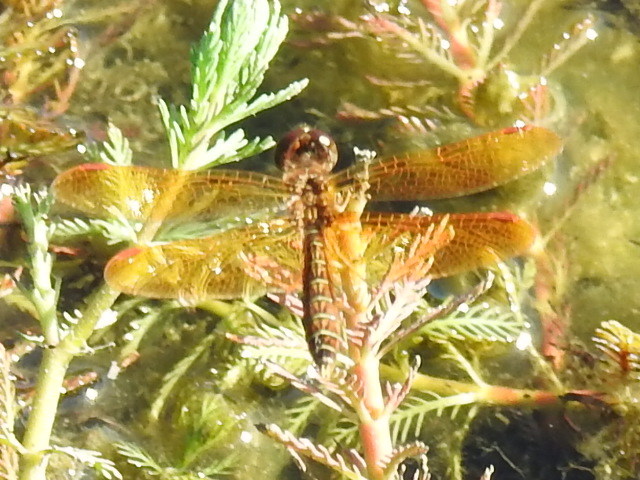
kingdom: Animalia
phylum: Arthropoda
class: Insecta
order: Odonata
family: Libellulidae
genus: Perithemis
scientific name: Perithemis tenera
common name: Eastern amberwing
